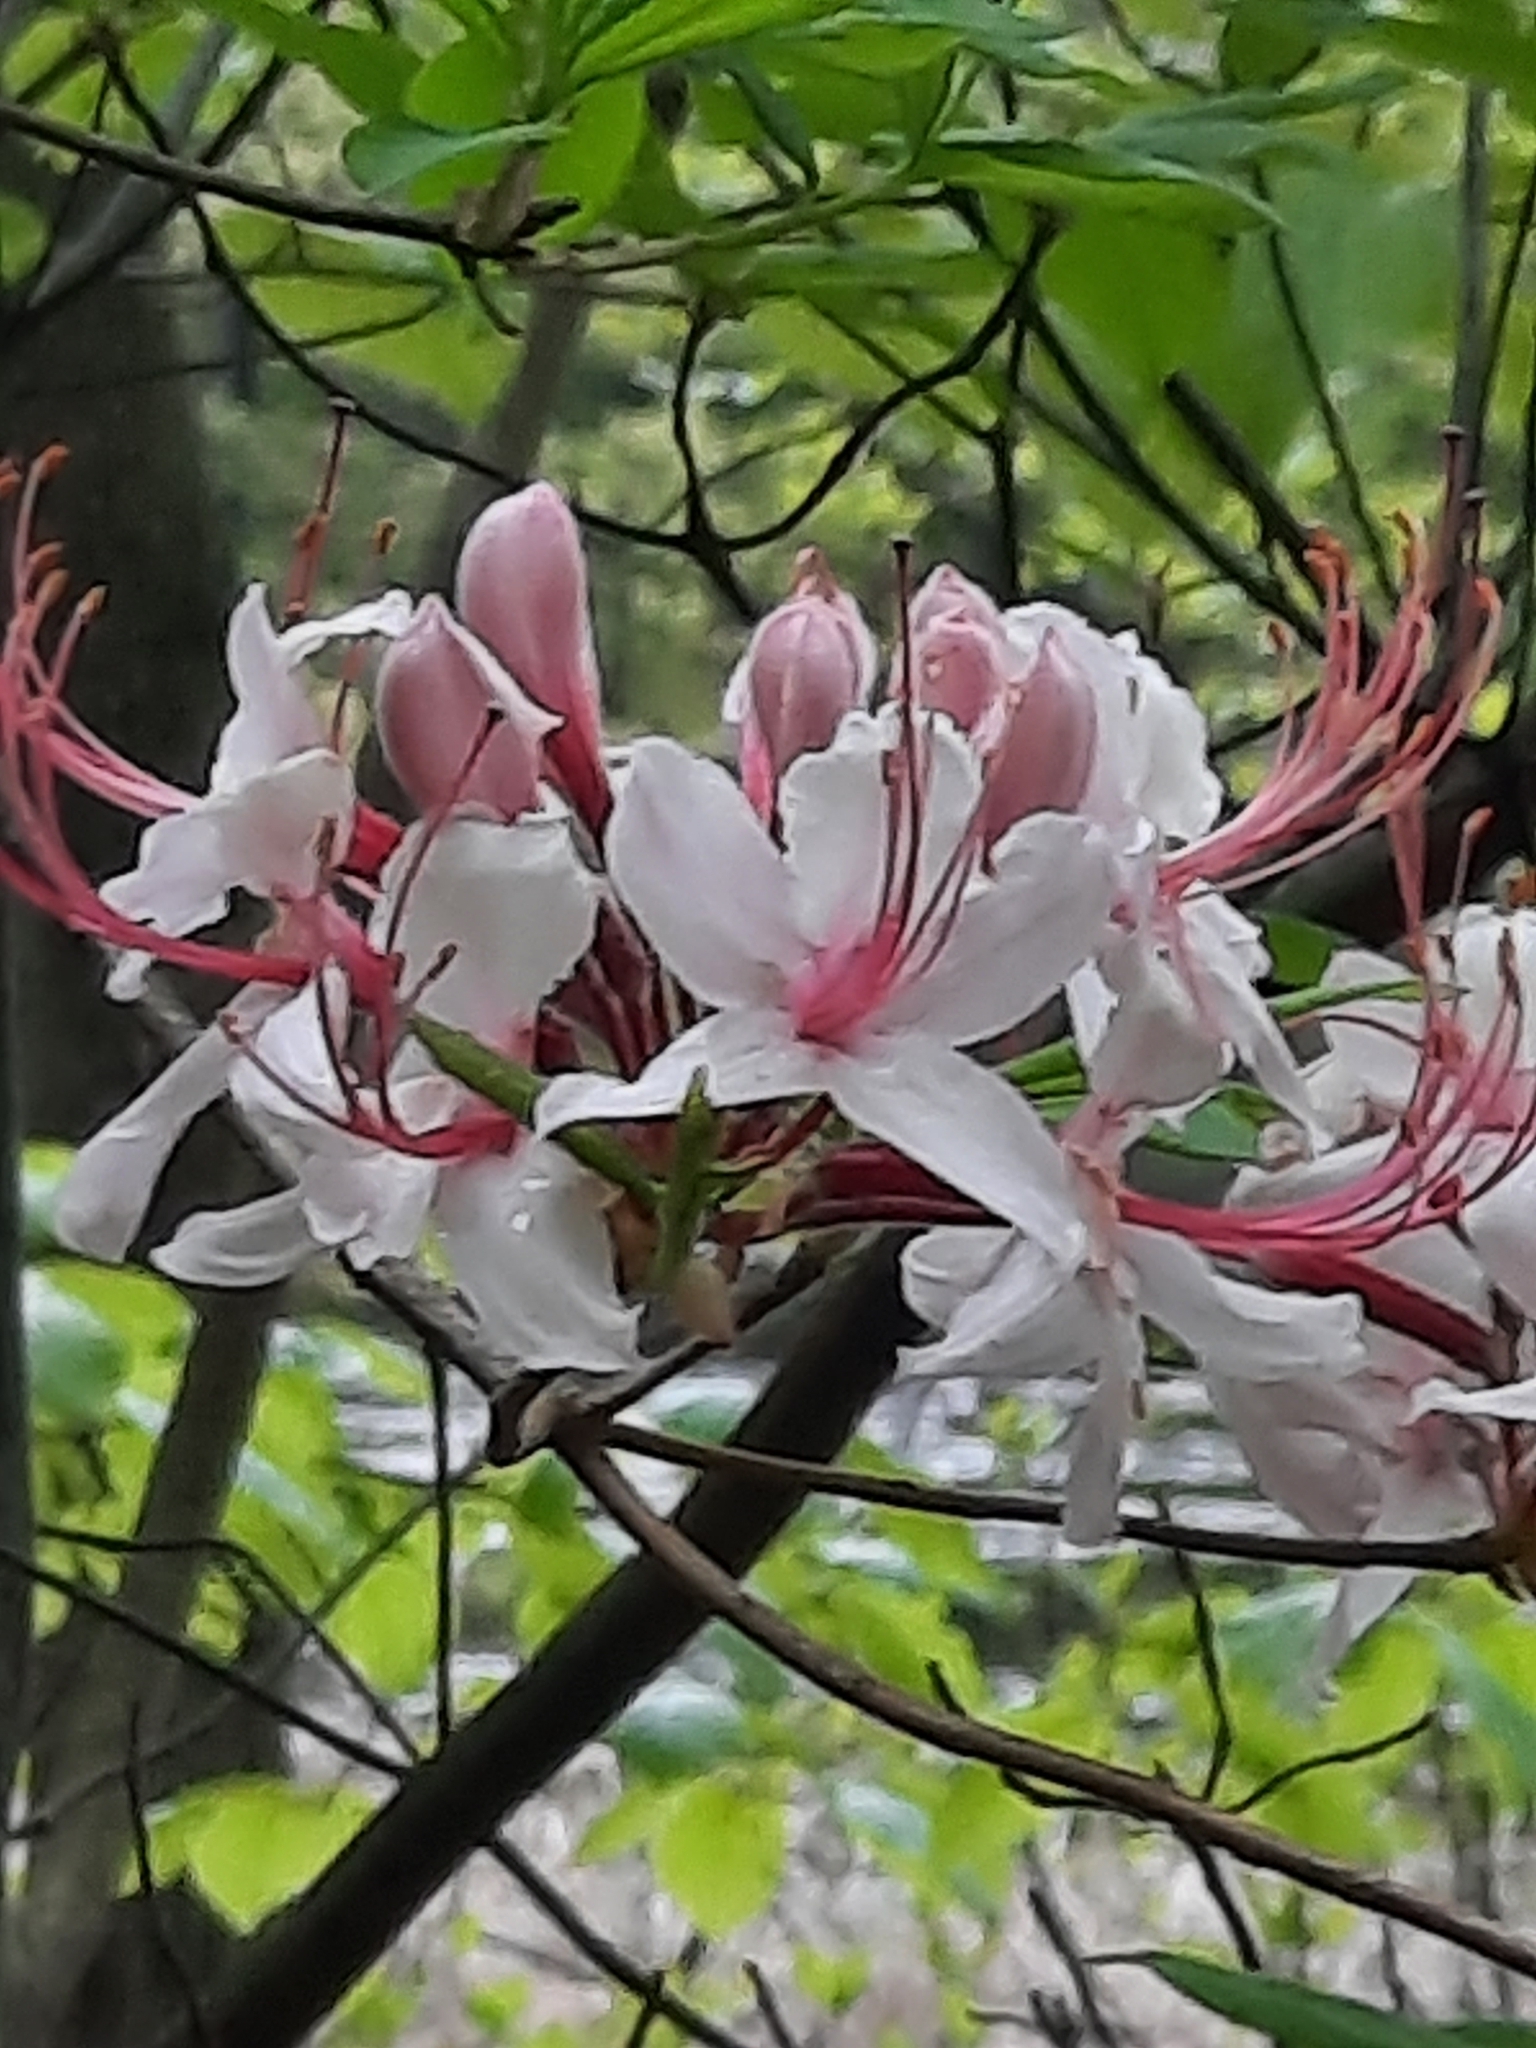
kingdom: Plantae
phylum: Tracheophyta
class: Magnoliopsida
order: Ericales
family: Ericaceae
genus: Rhododendron
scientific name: Rhododendron periclymenoides
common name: Election-pink
